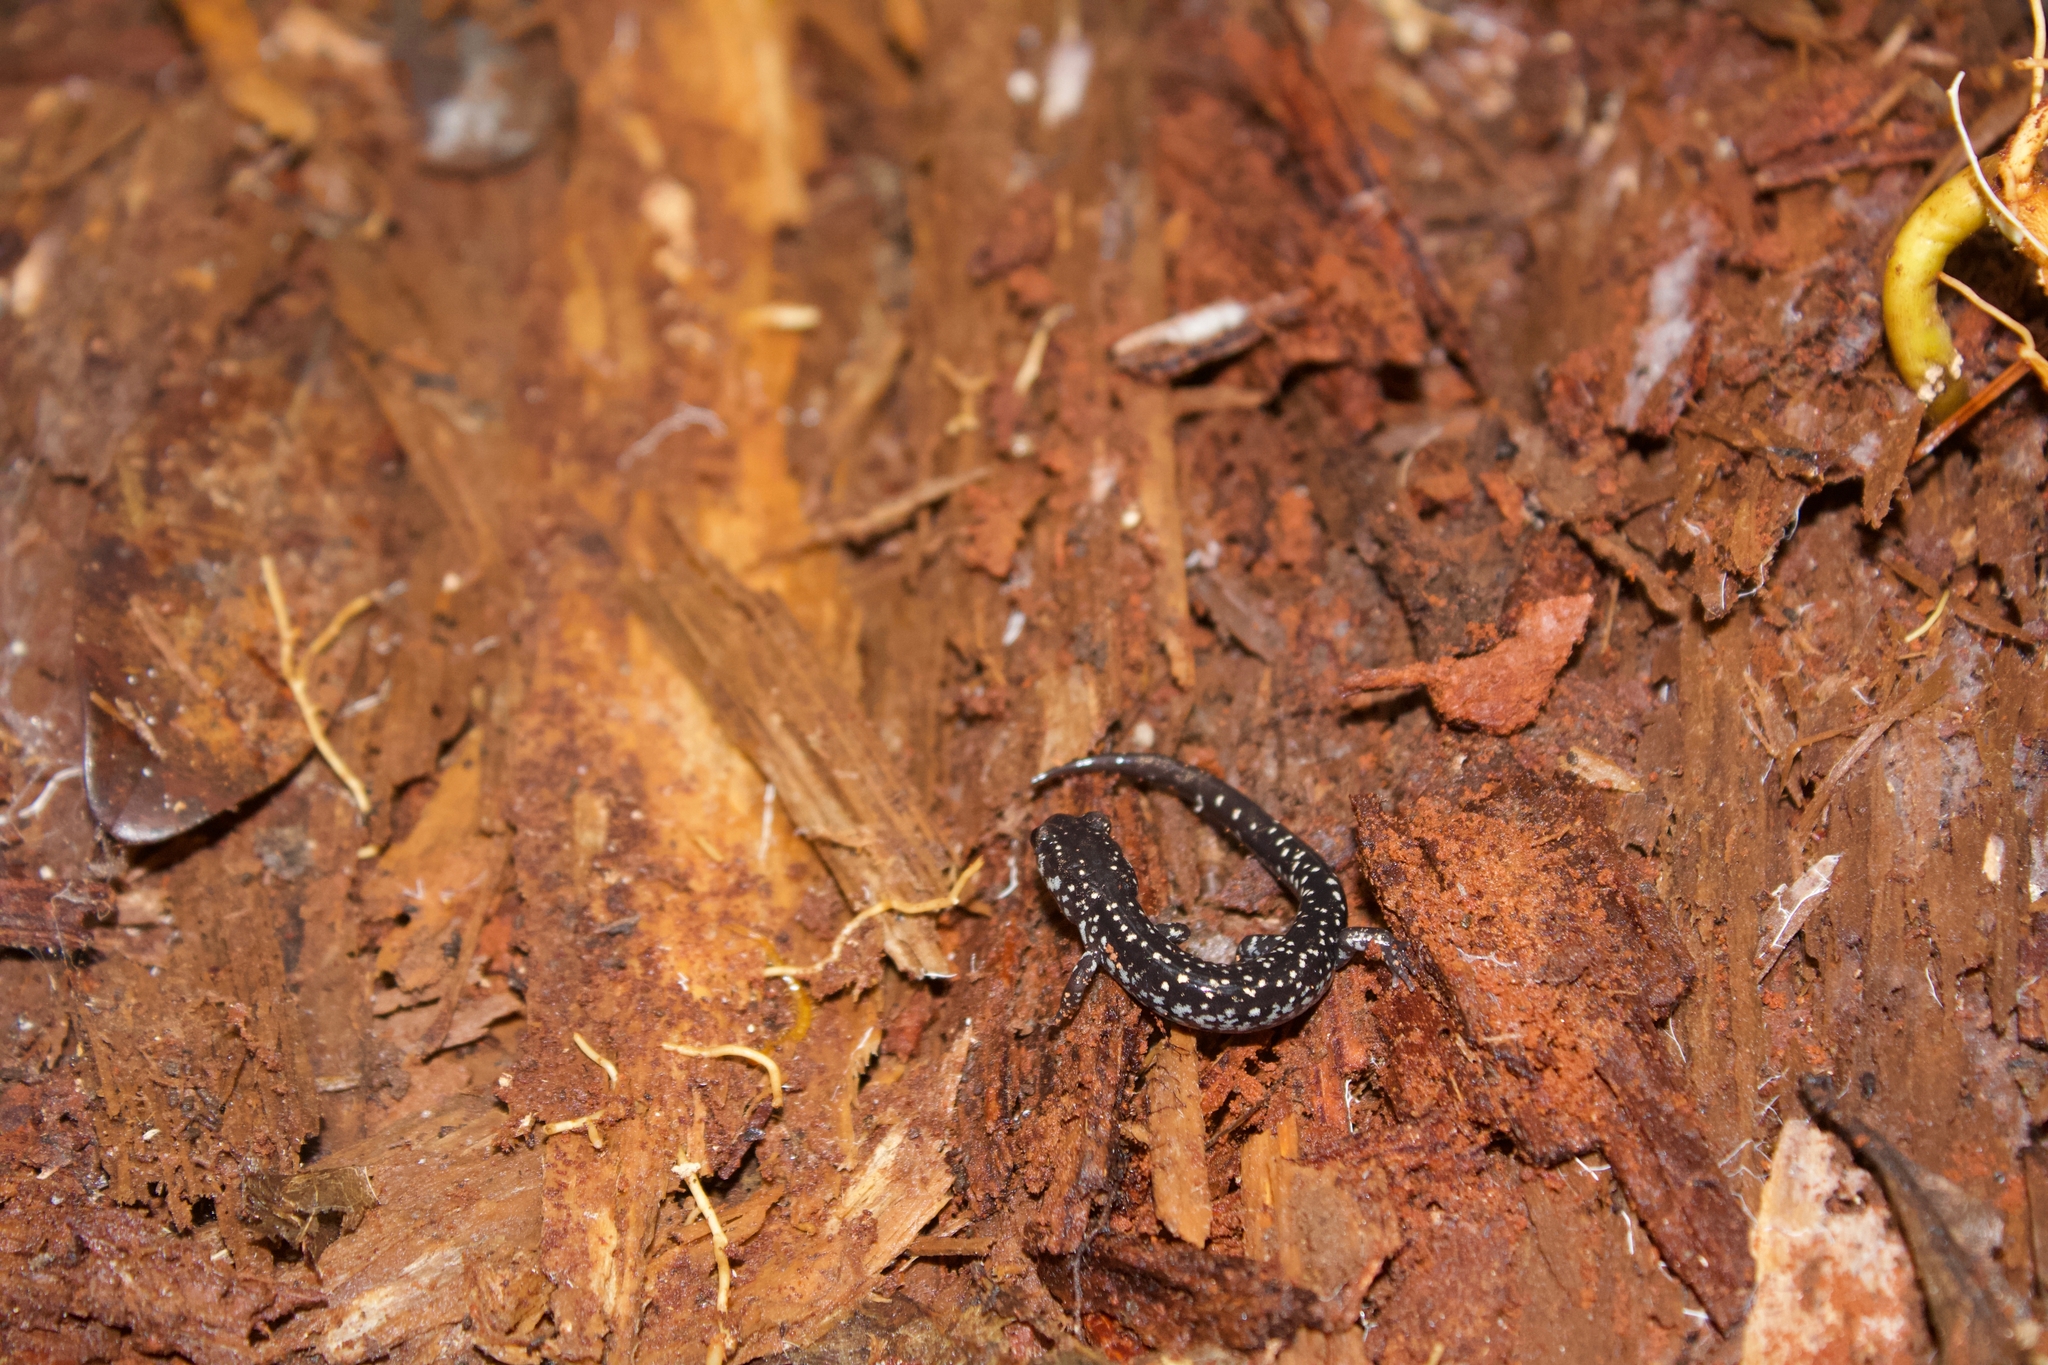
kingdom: Animalia
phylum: Chordata
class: Amphibia
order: Caudata
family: Plethodontidae
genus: Plethodon
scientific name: Plethodon mississippi
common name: Mississippi slimy salamander
